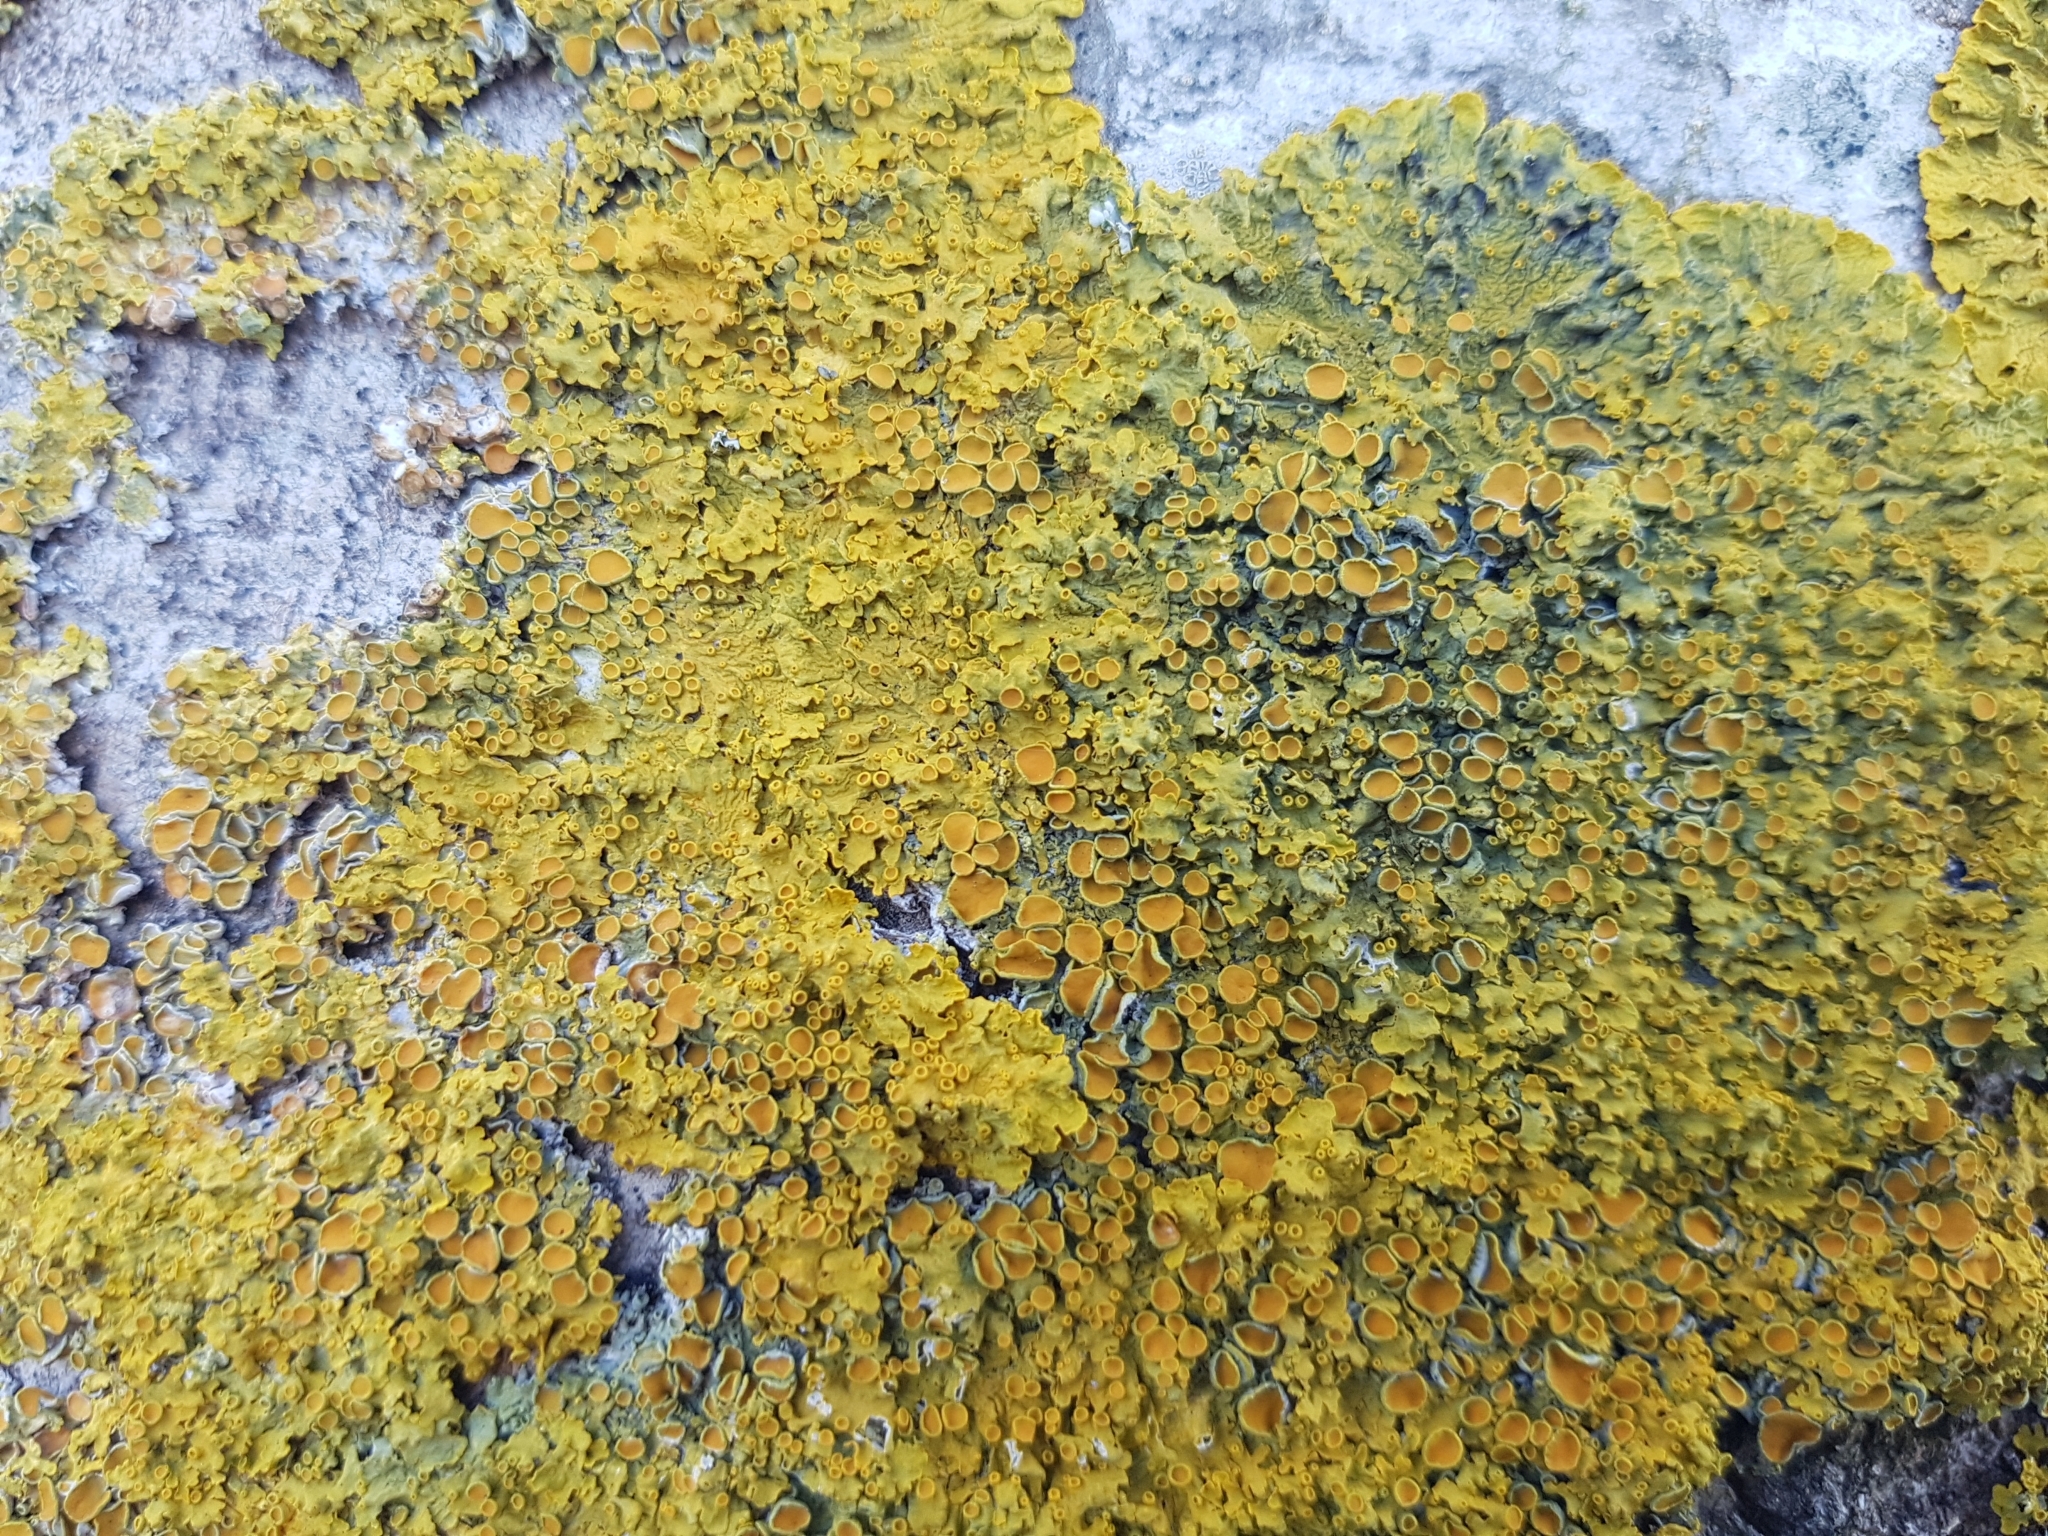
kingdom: Fungi
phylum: Ascomycota
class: Lecanoromycetes
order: Teloschistales
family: Teloschistaceae
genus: Xanthoria
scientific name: Xanthoria parietina
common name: Common orange lichen
